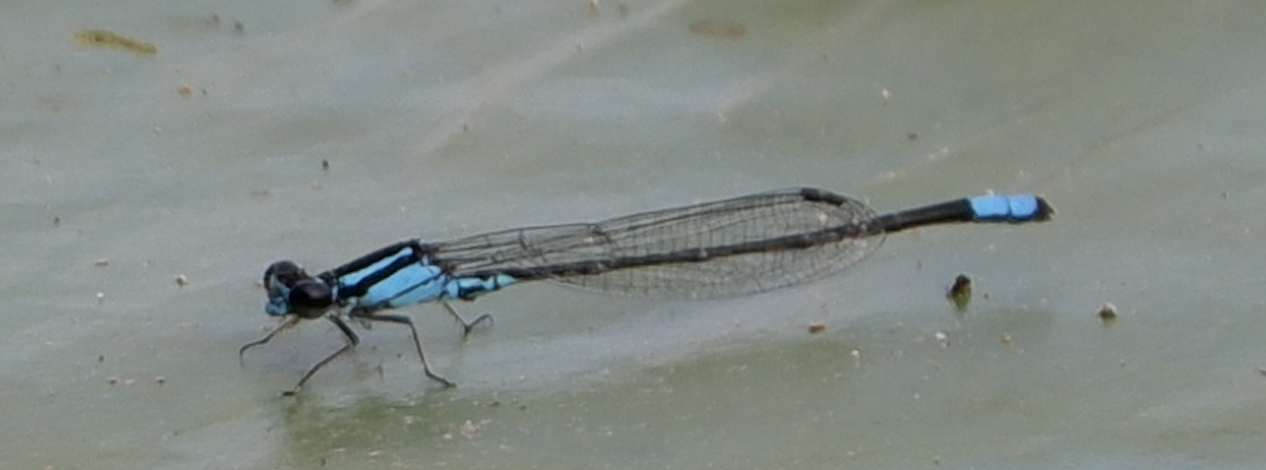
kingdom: Animalia
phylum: Arthropoda
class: Insecta
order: Odonata
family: Coenagrionidae
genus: Enallagma
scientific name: Enallagma geminatum
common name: Skimming bluet
